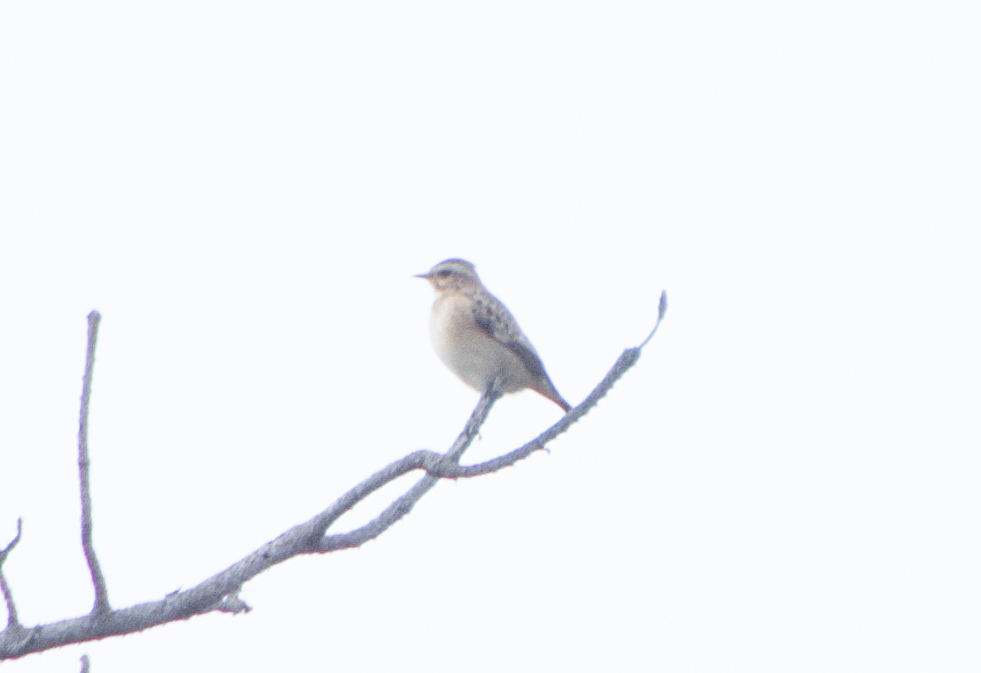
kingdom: Animalia
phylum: Chordata
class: Aves
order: Passeriformes
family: Muscicapidae
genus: Saxicola
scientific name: Saxicola rubetra
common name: Whinchat
